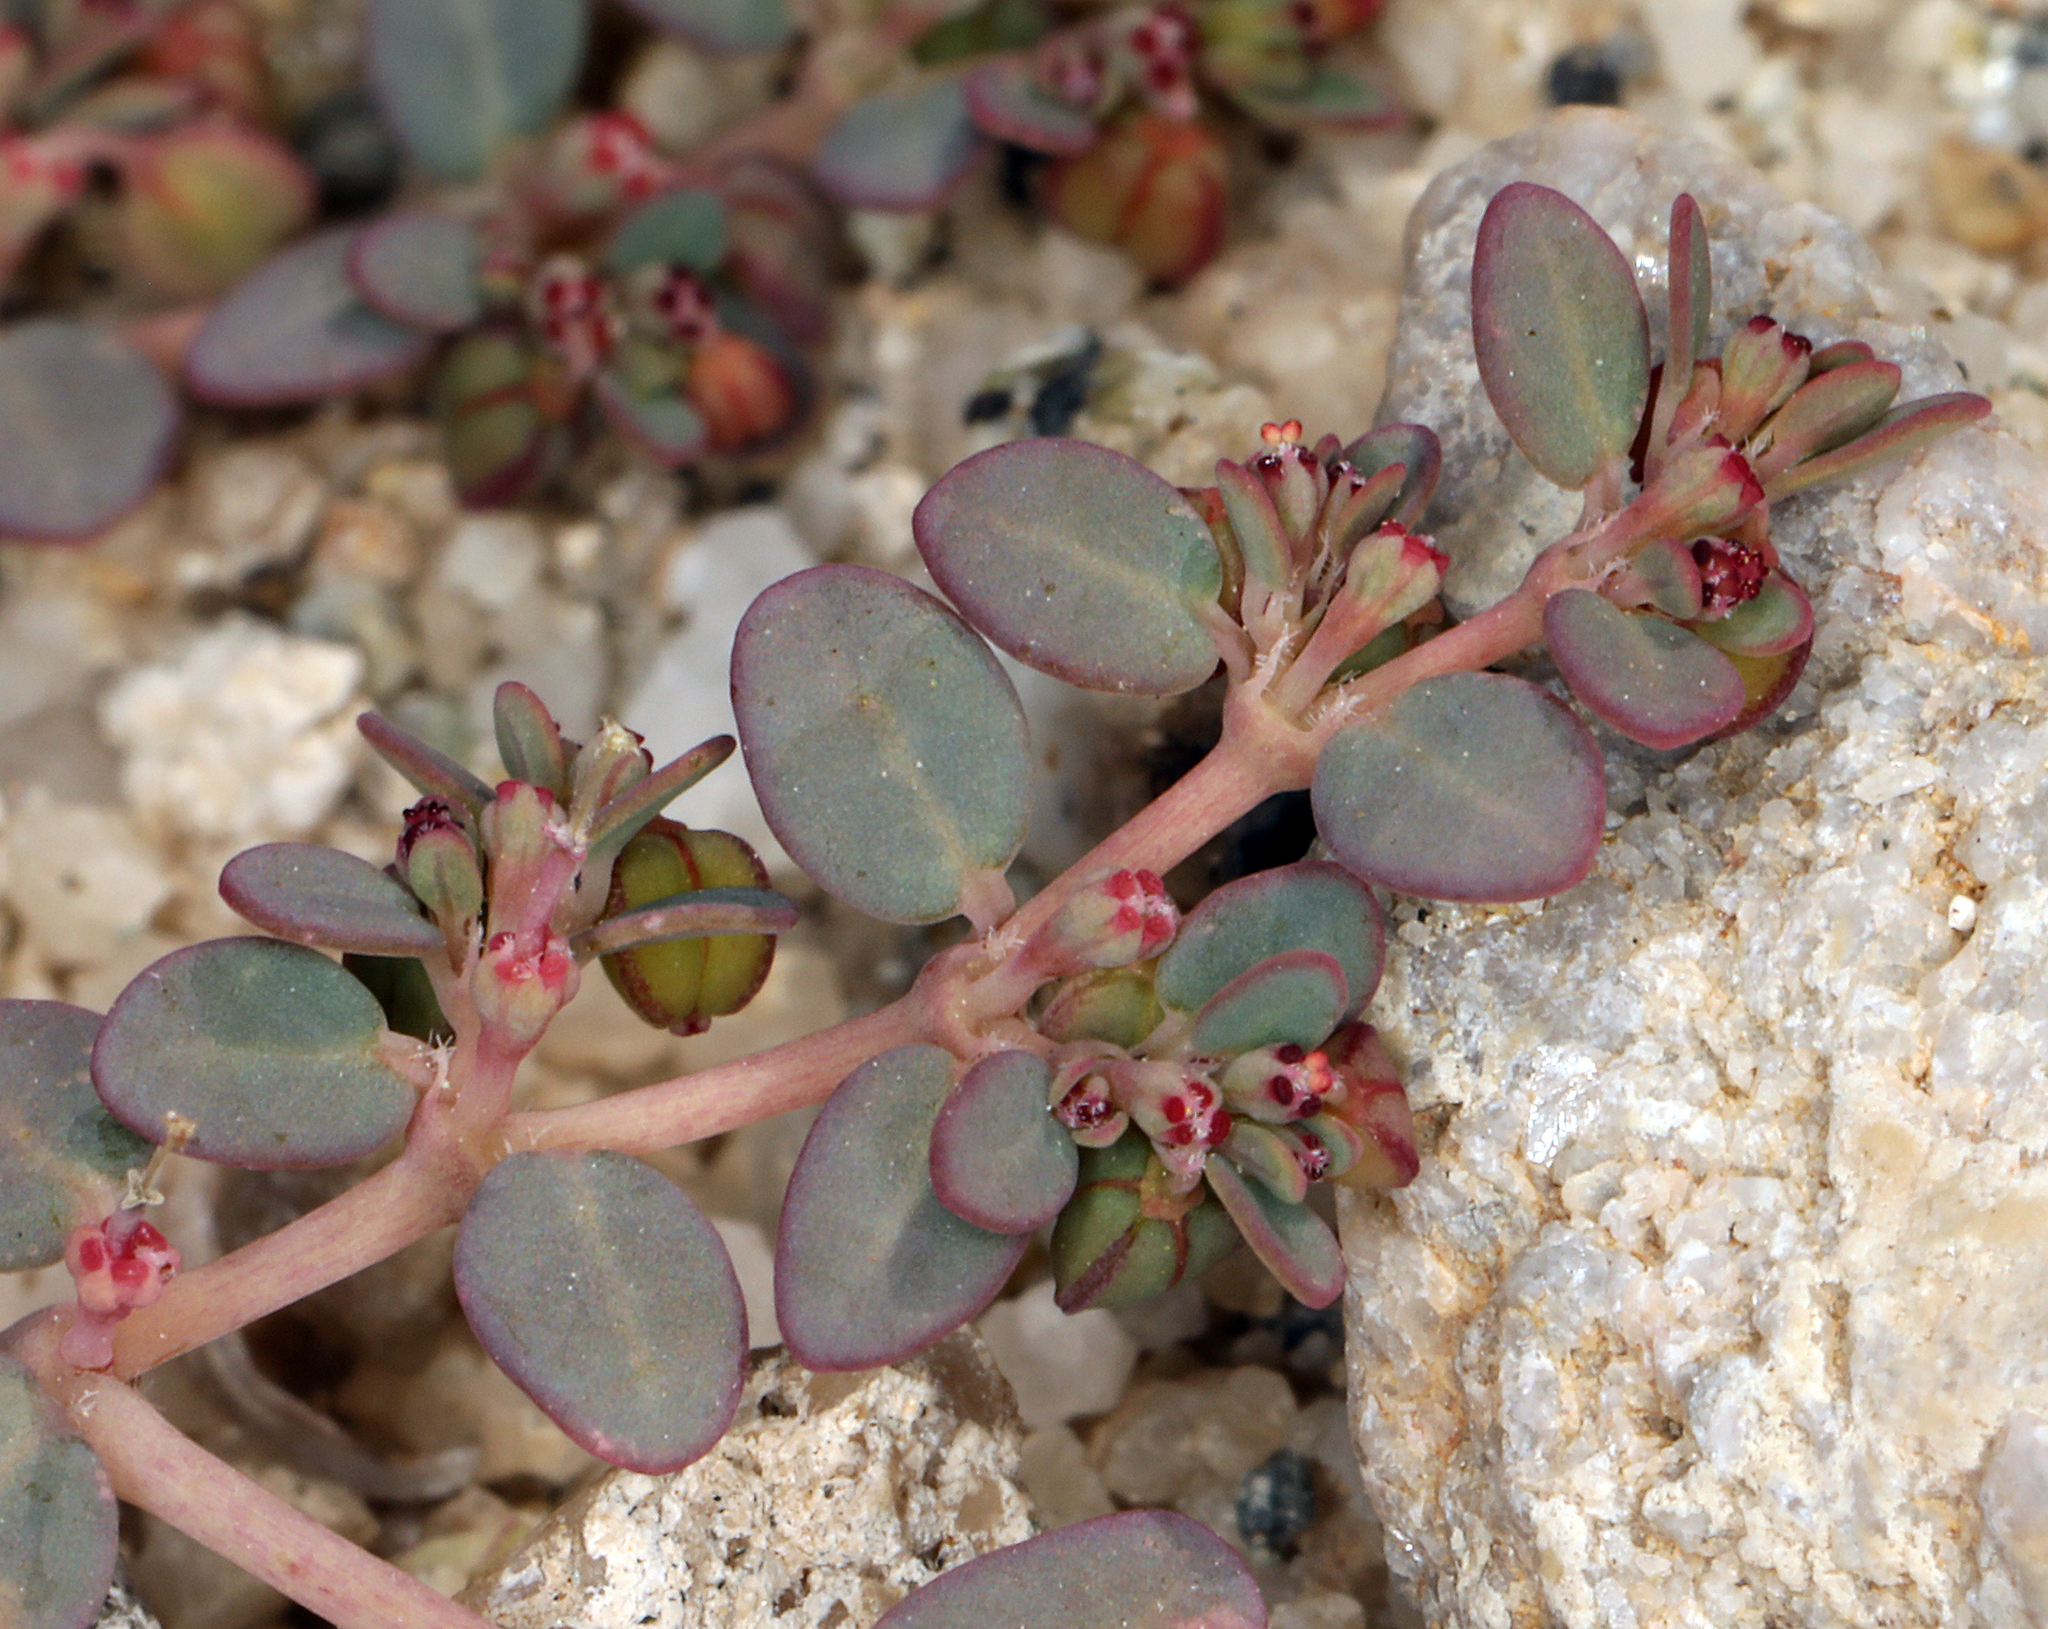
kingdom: Plantae
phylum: Tracheophyta
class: Magnoliopsida
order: Malpighiales
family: Euphorbiaceae
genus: Euphorbia
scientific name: Euphorbia micromera
